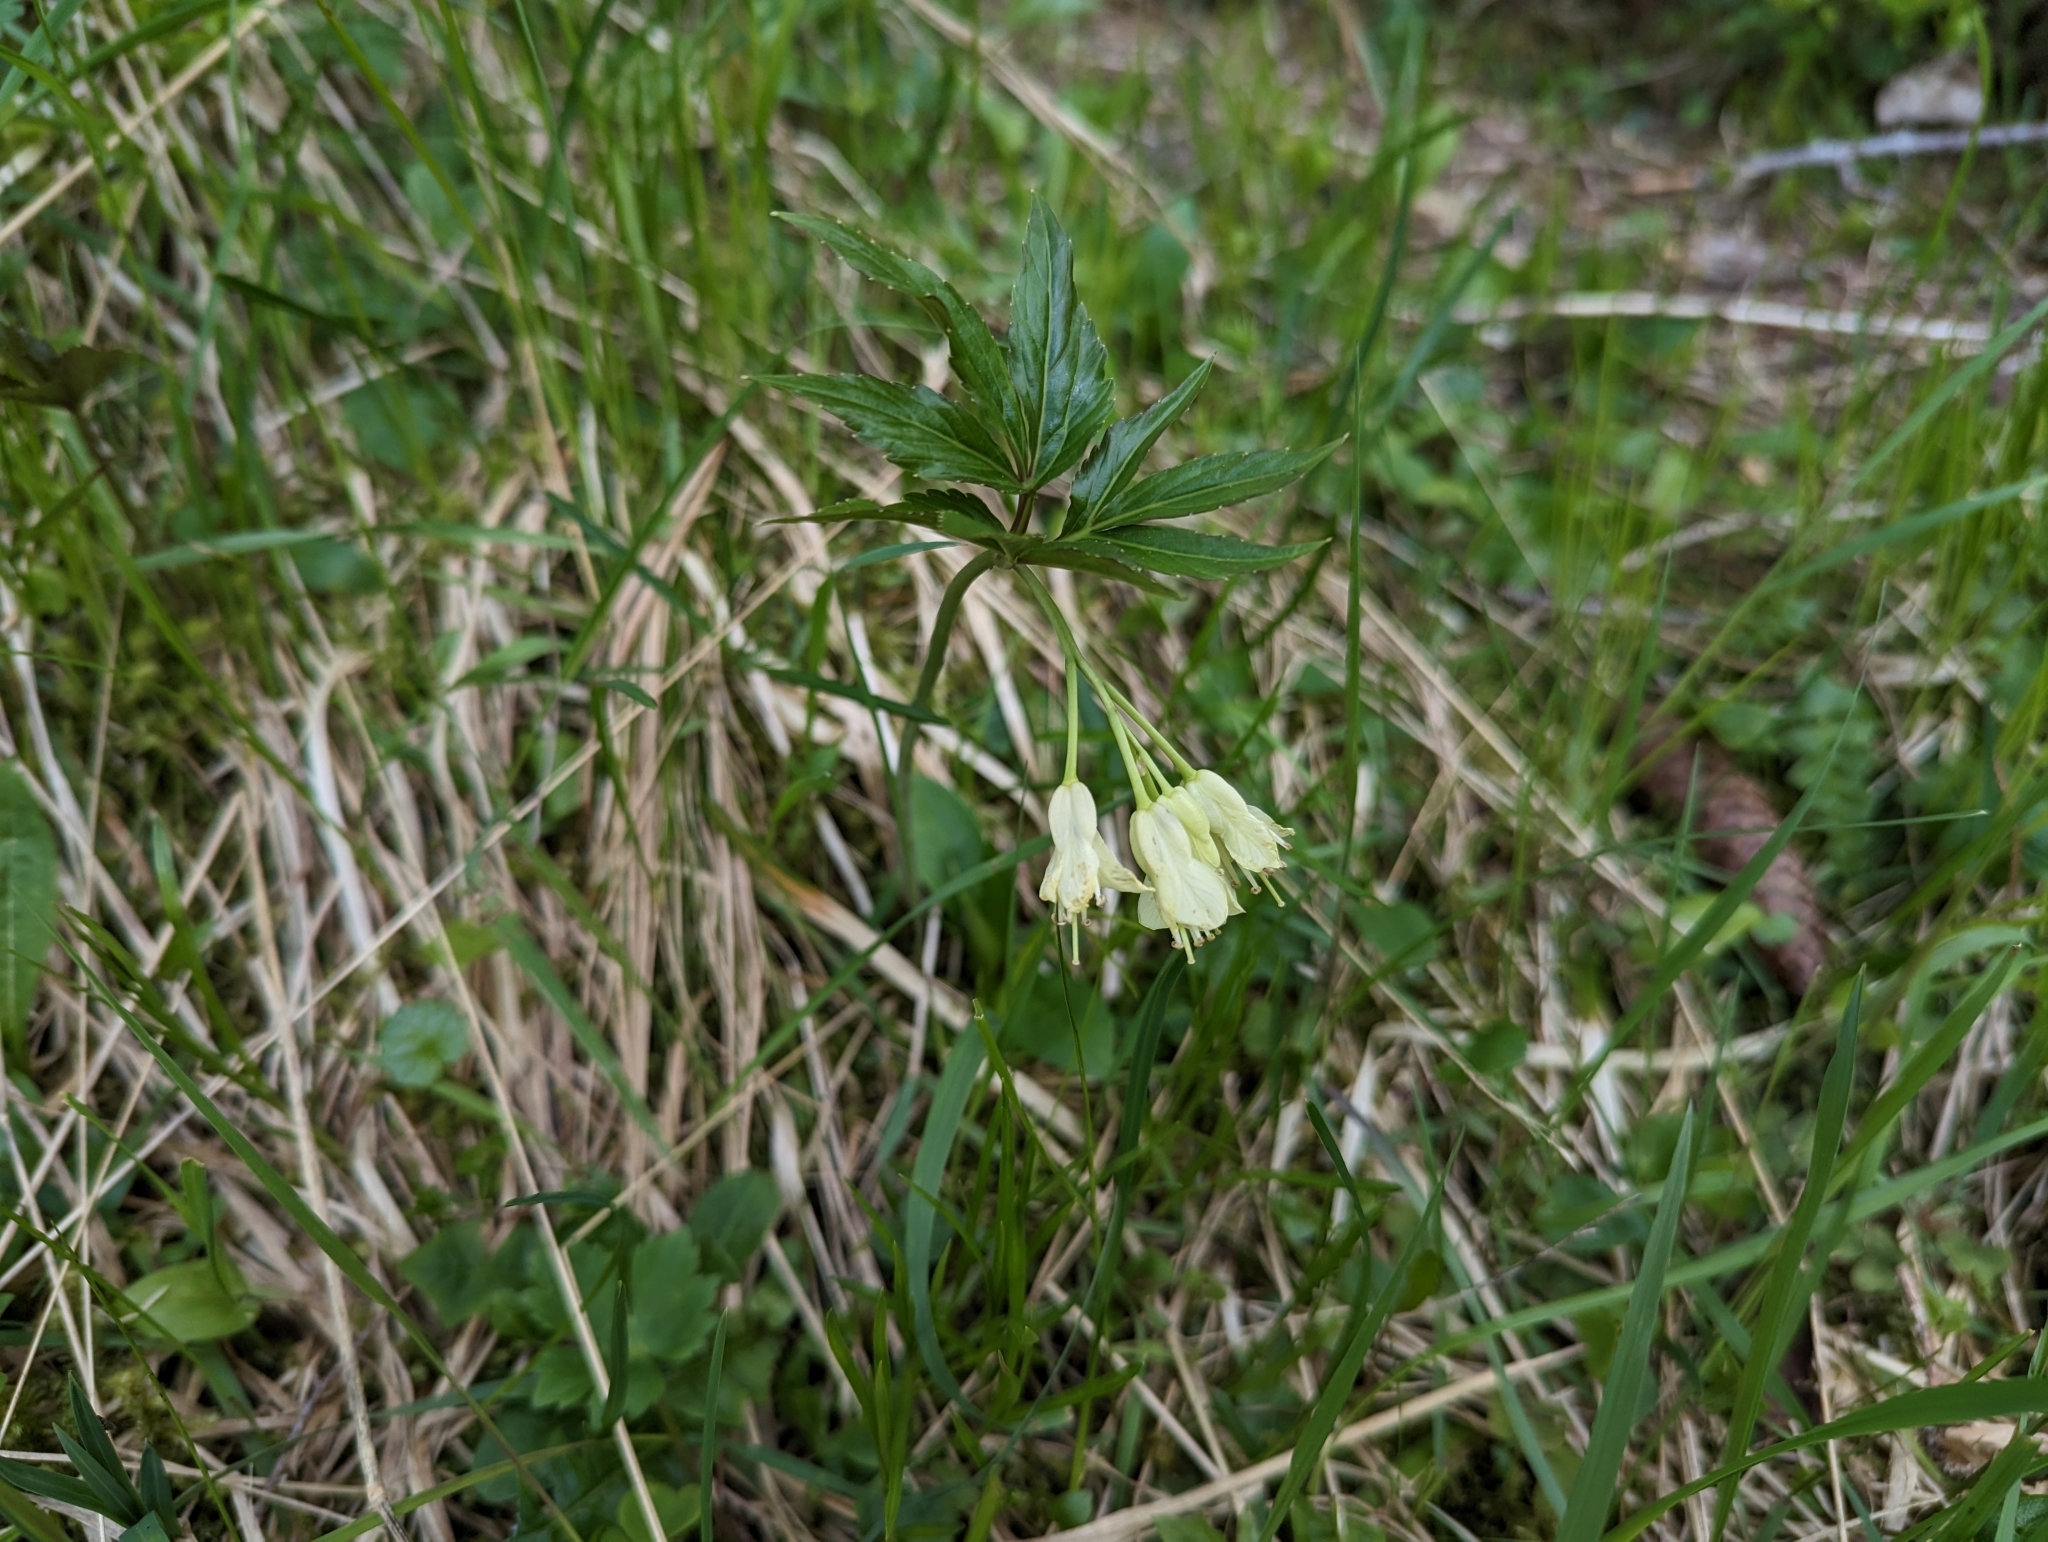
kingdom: Plantae
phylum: Tracheophyta
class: Magnoliopsida
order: Brassicales
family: Brassicaceae
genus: Cardamine
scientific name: Cardamine enneaphyllos
